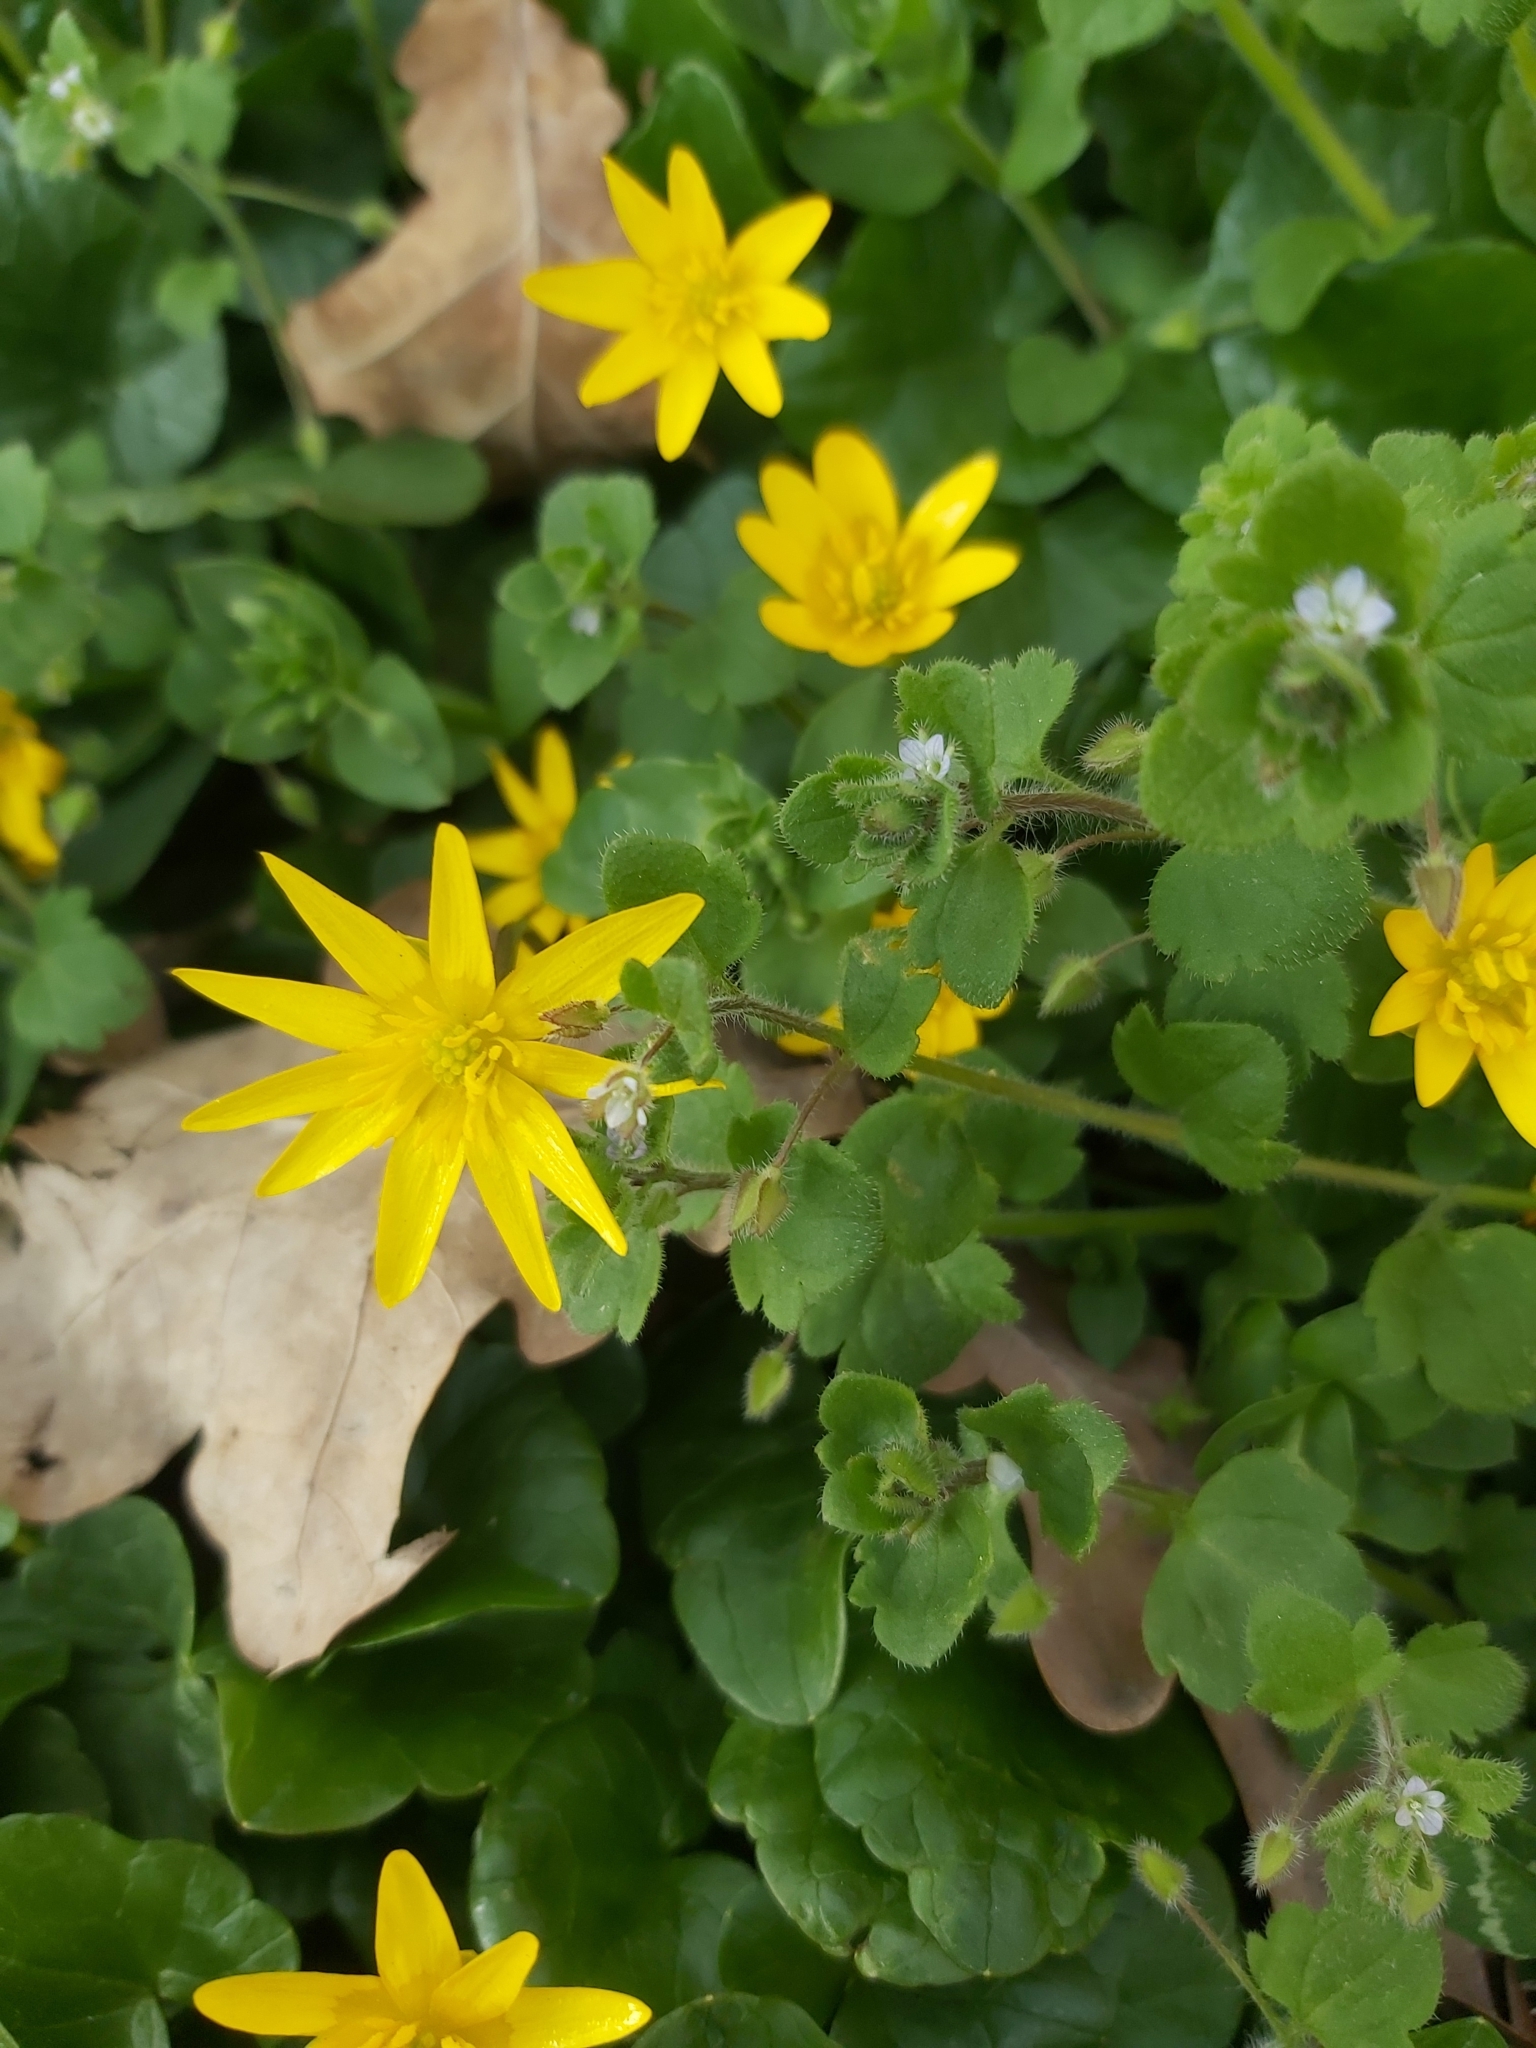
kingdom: Plantae
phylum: Tracheophyta
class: Magnoliopsida
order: Lamiales
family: Plantaginaceae
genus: Veronica
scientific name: Veronica sublobata
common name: False ivy-leaved speedwell
